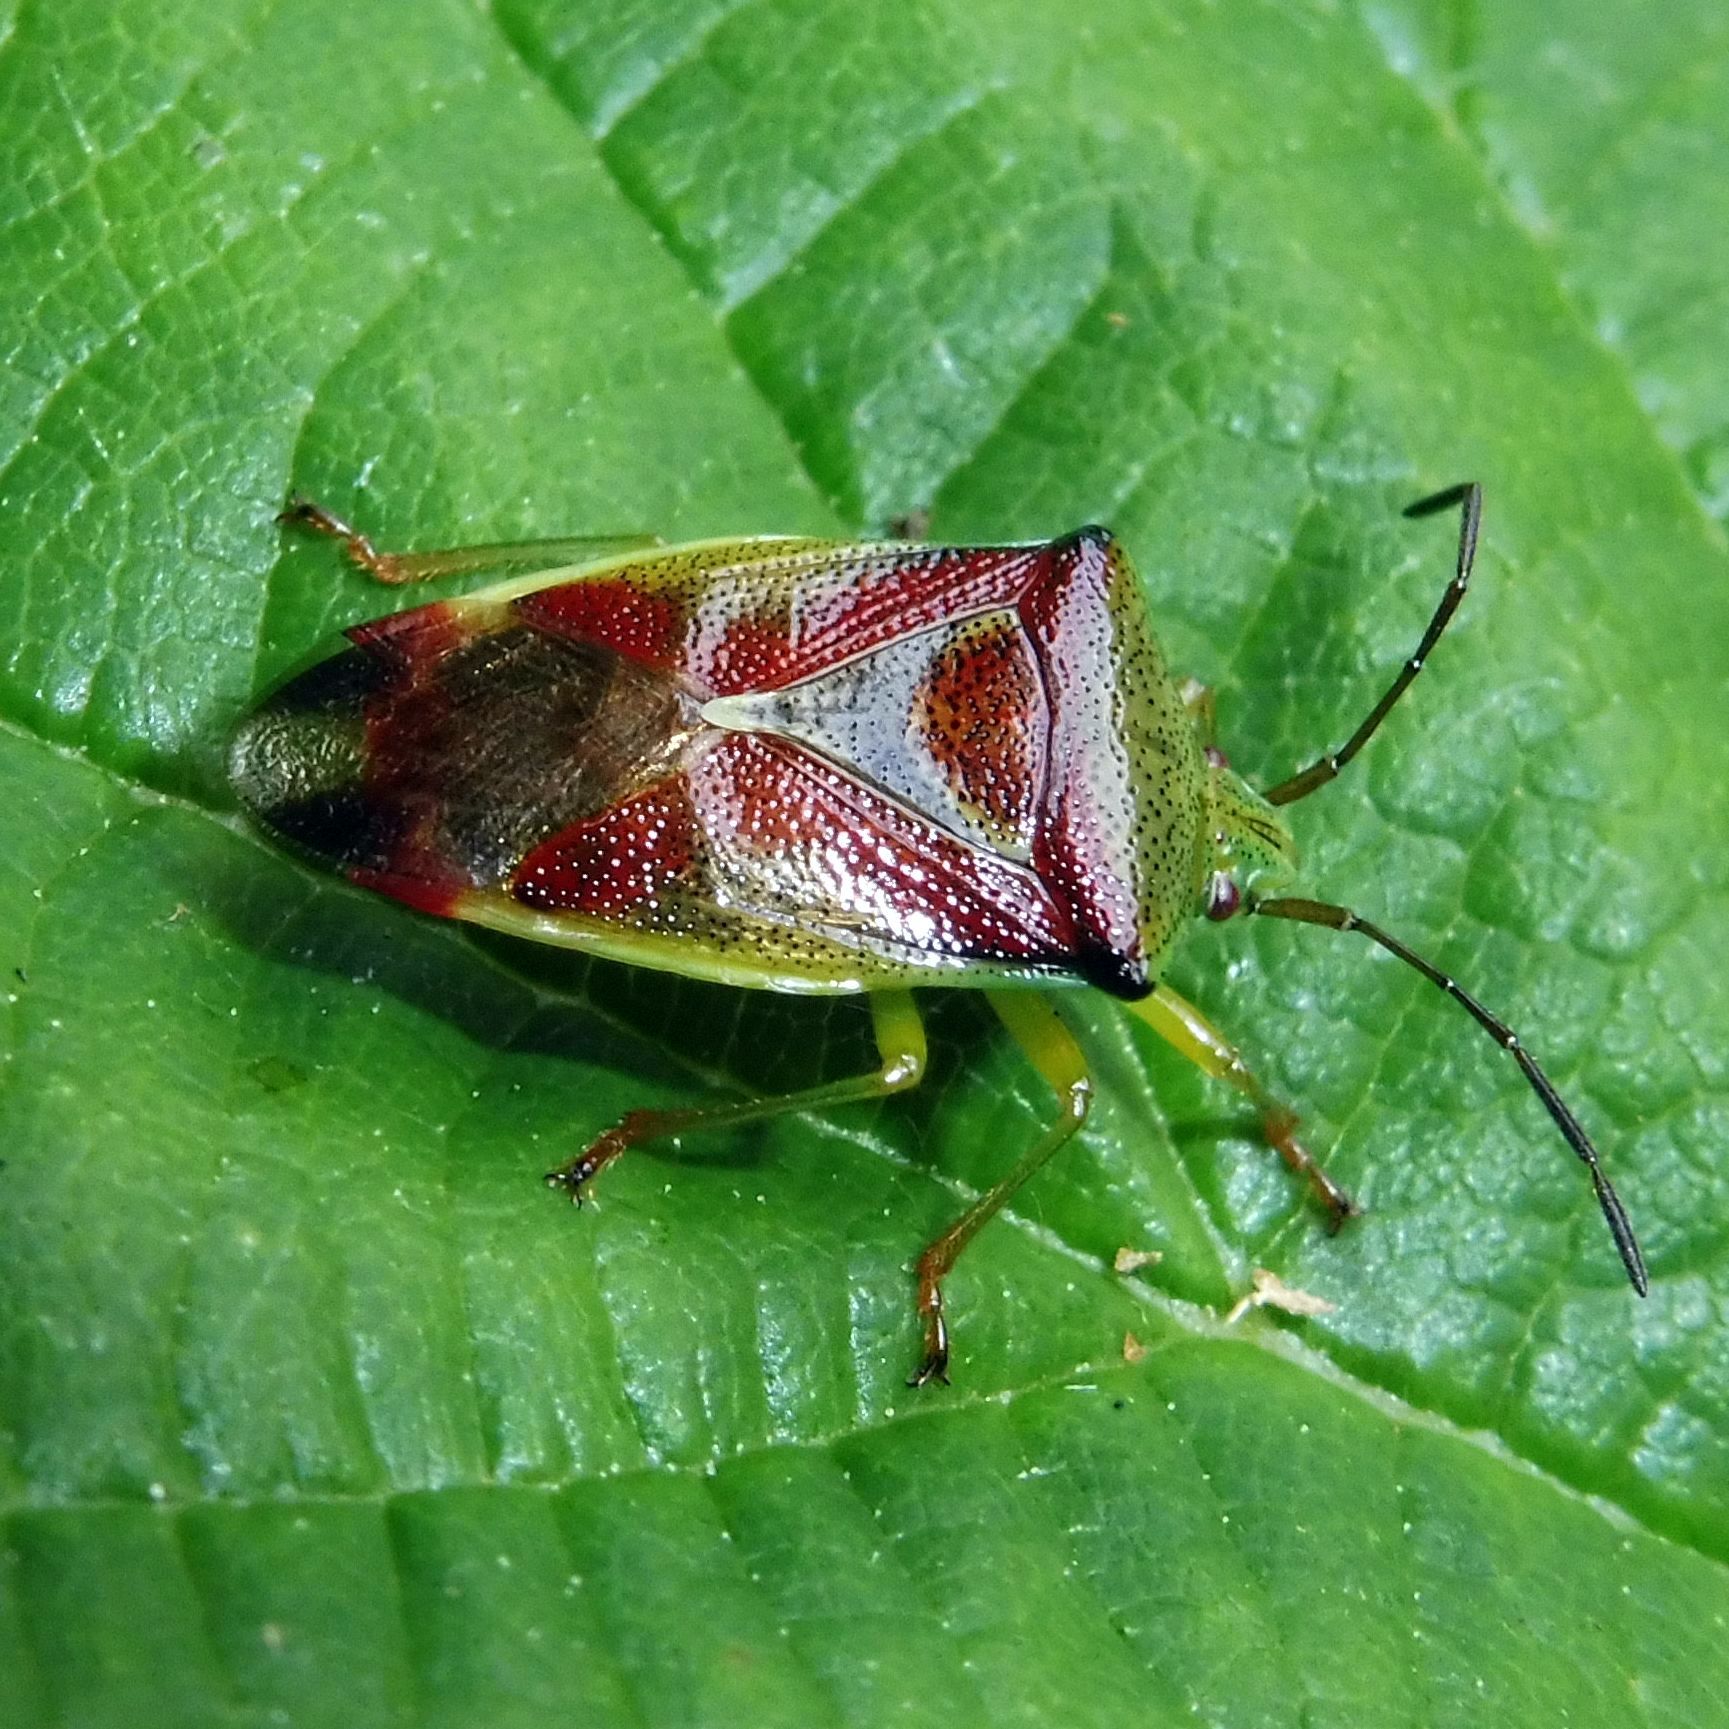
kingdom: Animalia
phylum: Arthropoda
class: Insecta
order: Hemiptera
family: Acanthosomatidae
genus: Elasmostethus
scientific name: Elasmostethus interstinctus
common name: Birch shieldbug
